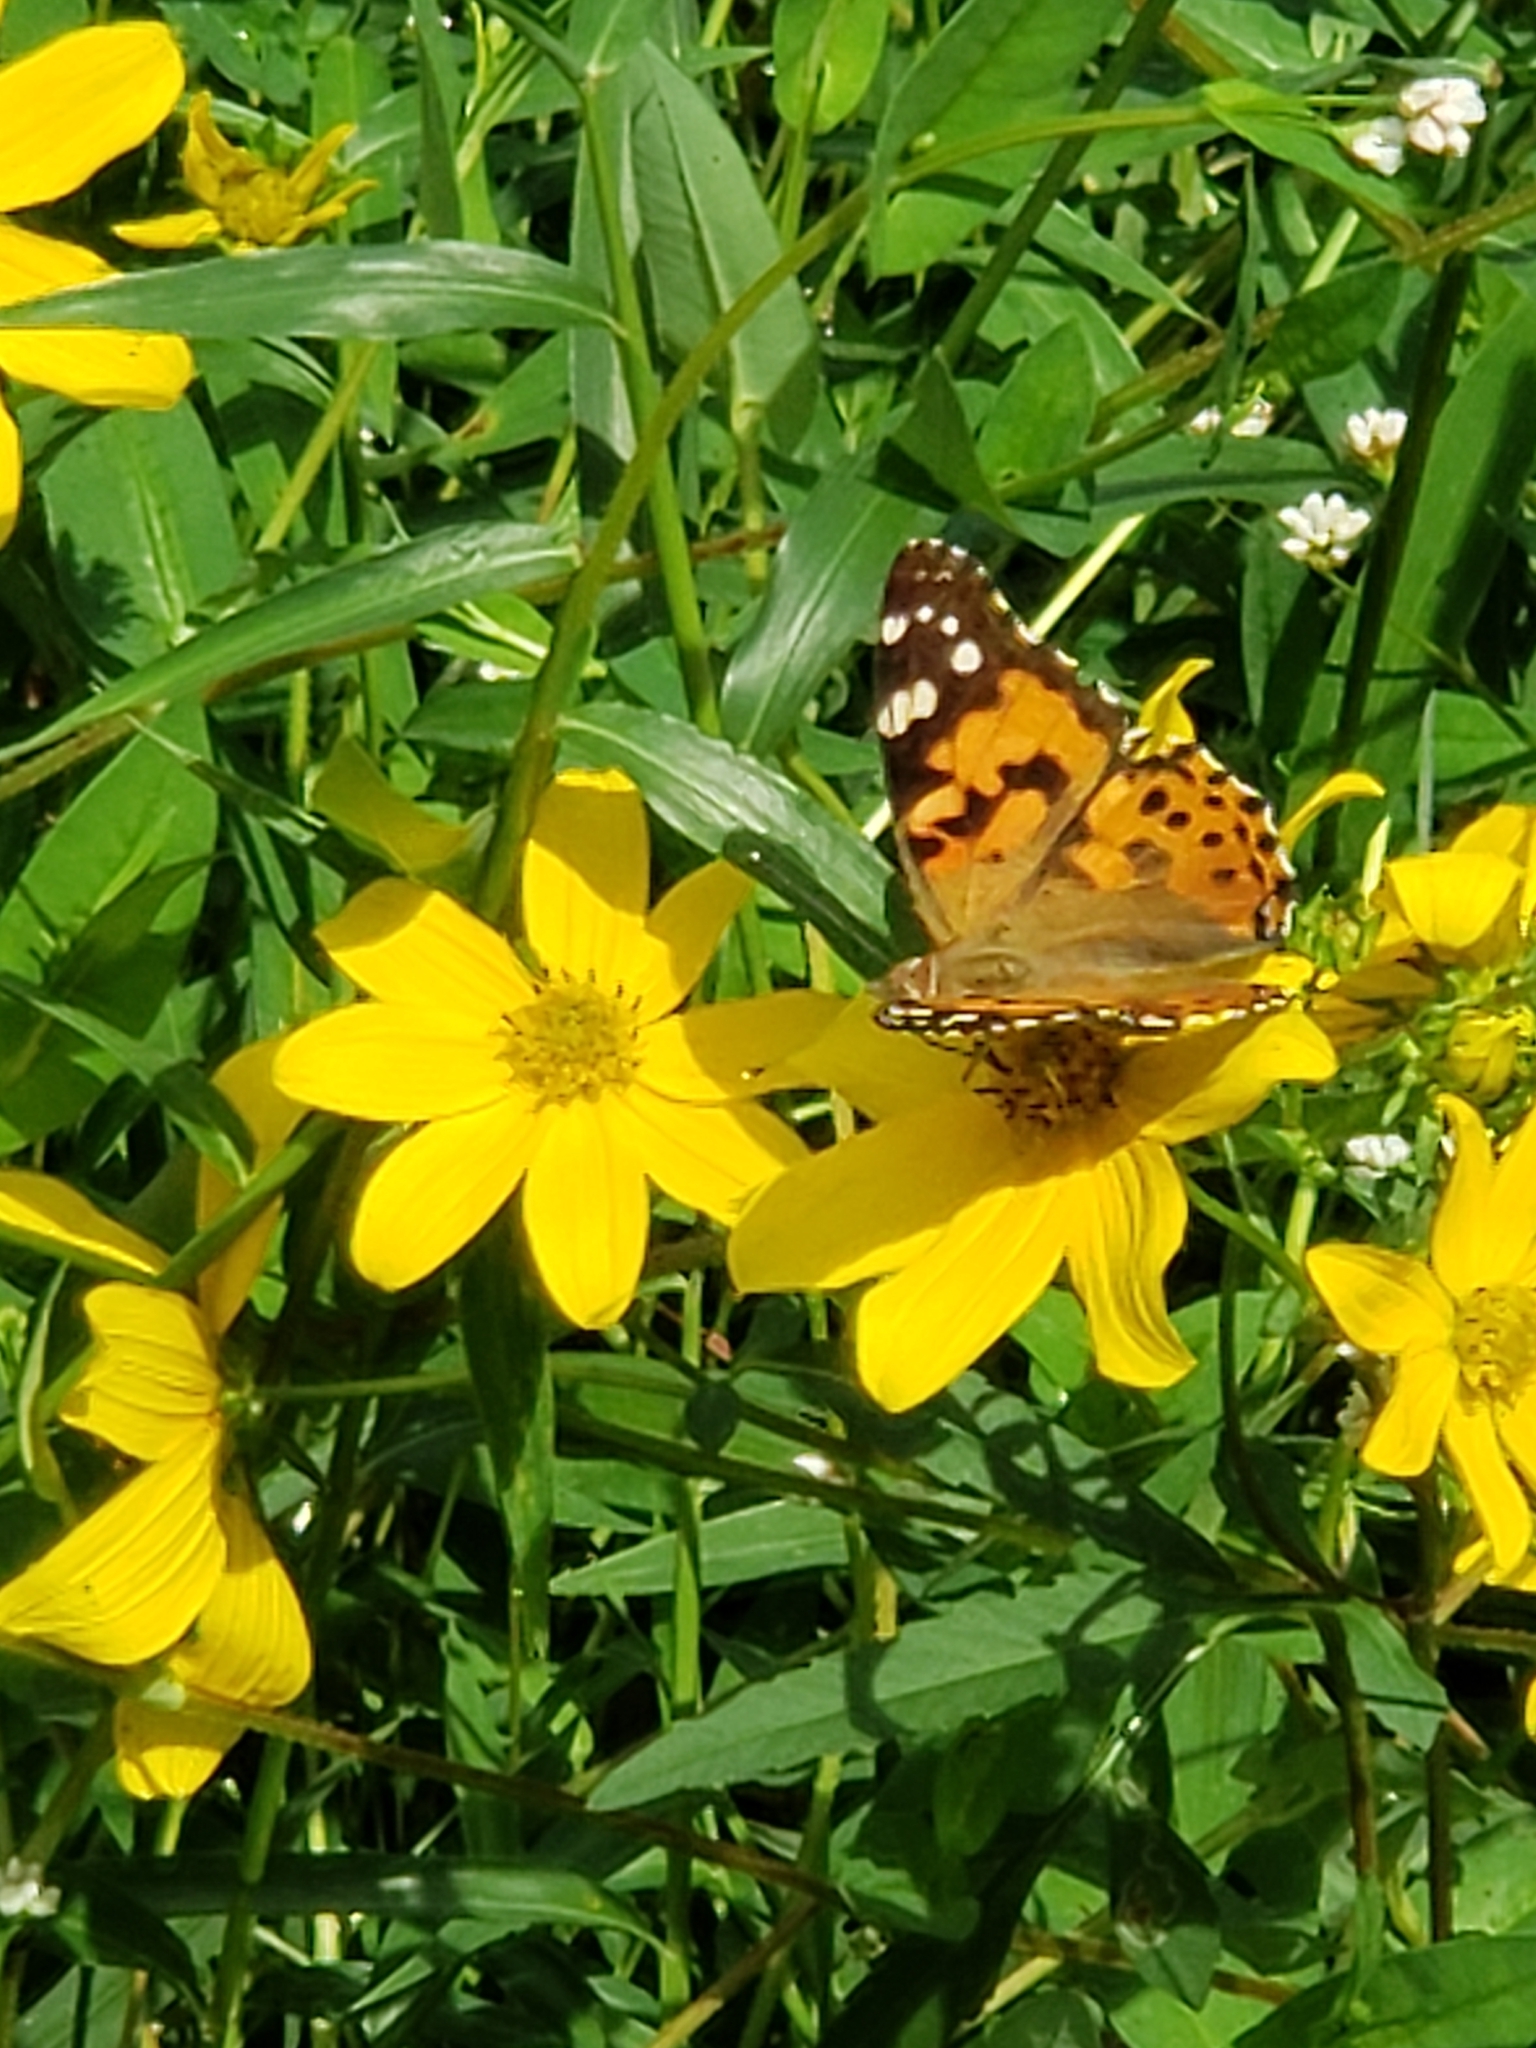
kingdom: Animalia
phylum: Arthropoda
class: Insecta
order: Lepidoptera
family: Nymphalidae
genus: Vanessa
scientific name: Vanessa cardui
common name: Painted lady
